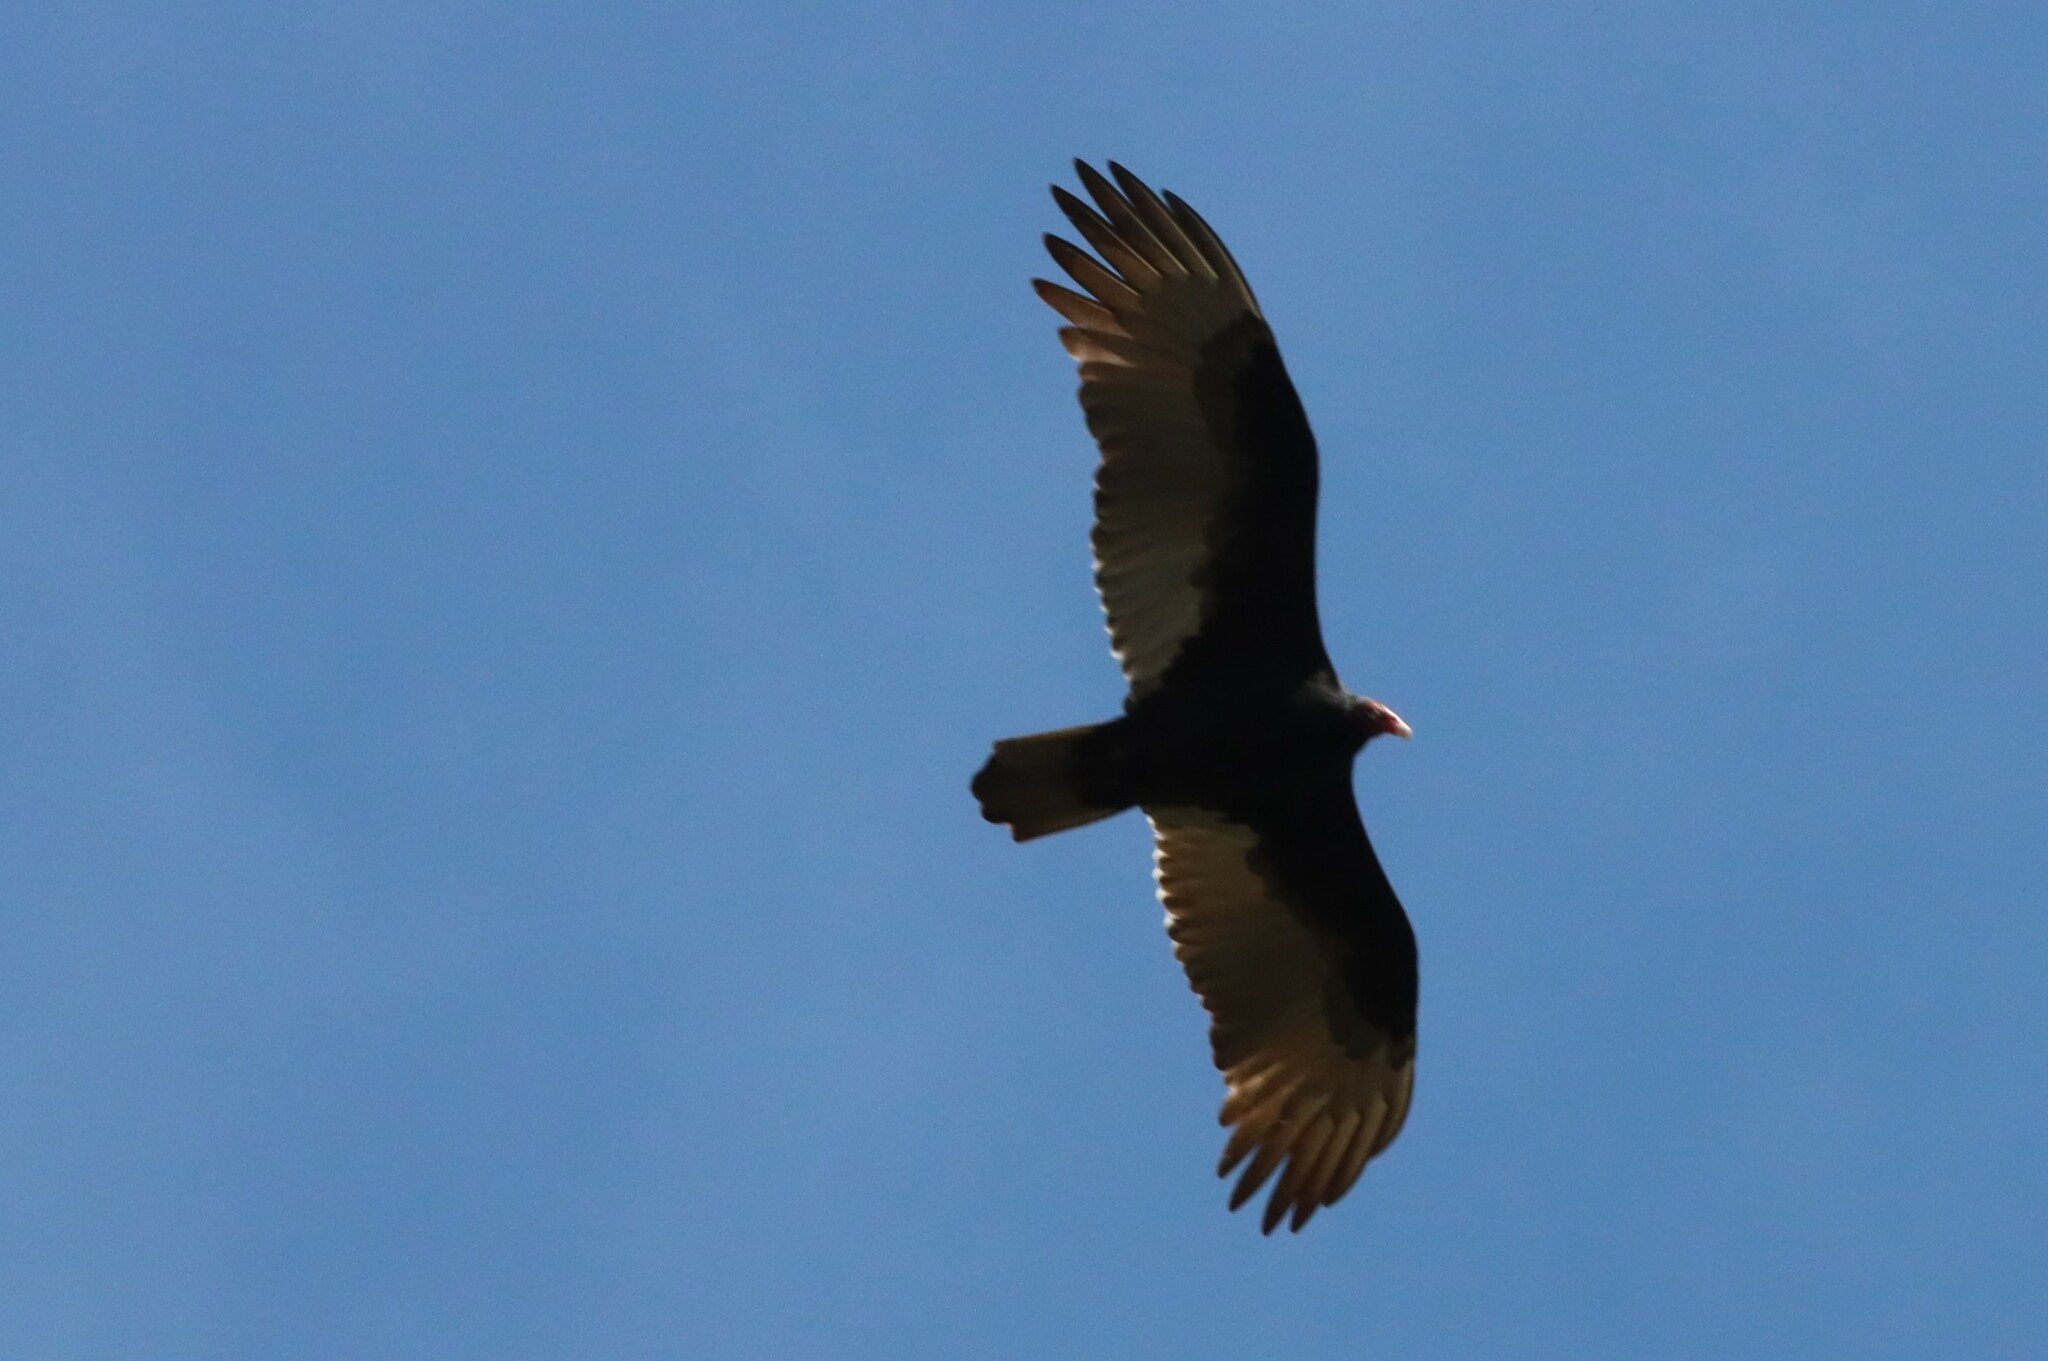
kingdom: Animalia
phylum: Chordata
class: Aves
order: Accipitriformes
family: Cathartidae
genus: Cathartes
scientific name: Cathartes aura
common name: Turkey vulture
